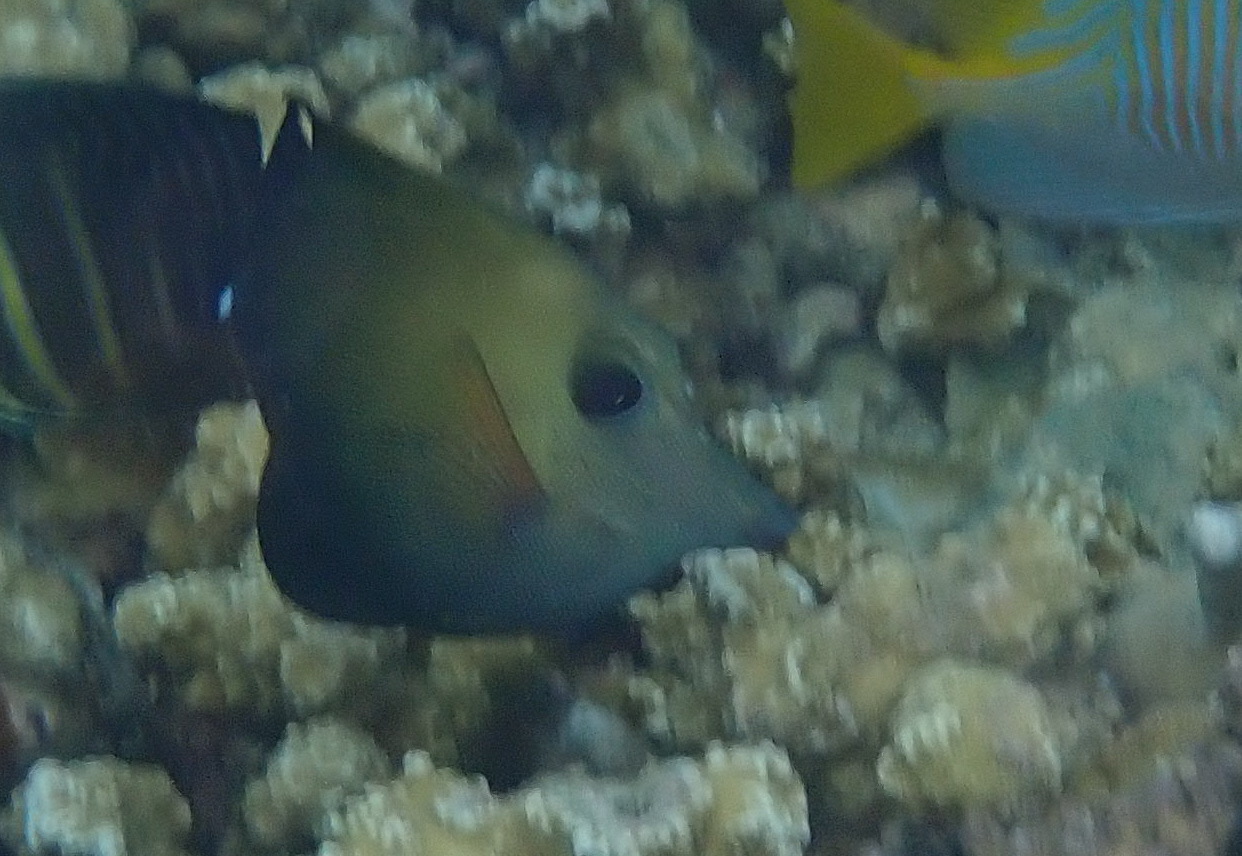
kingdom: Animalia
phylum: Chordata
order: Perciformes
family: Acanthuridae
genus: Zebrasoma
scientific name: Zebrasoma scopas
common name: Twotone tang
